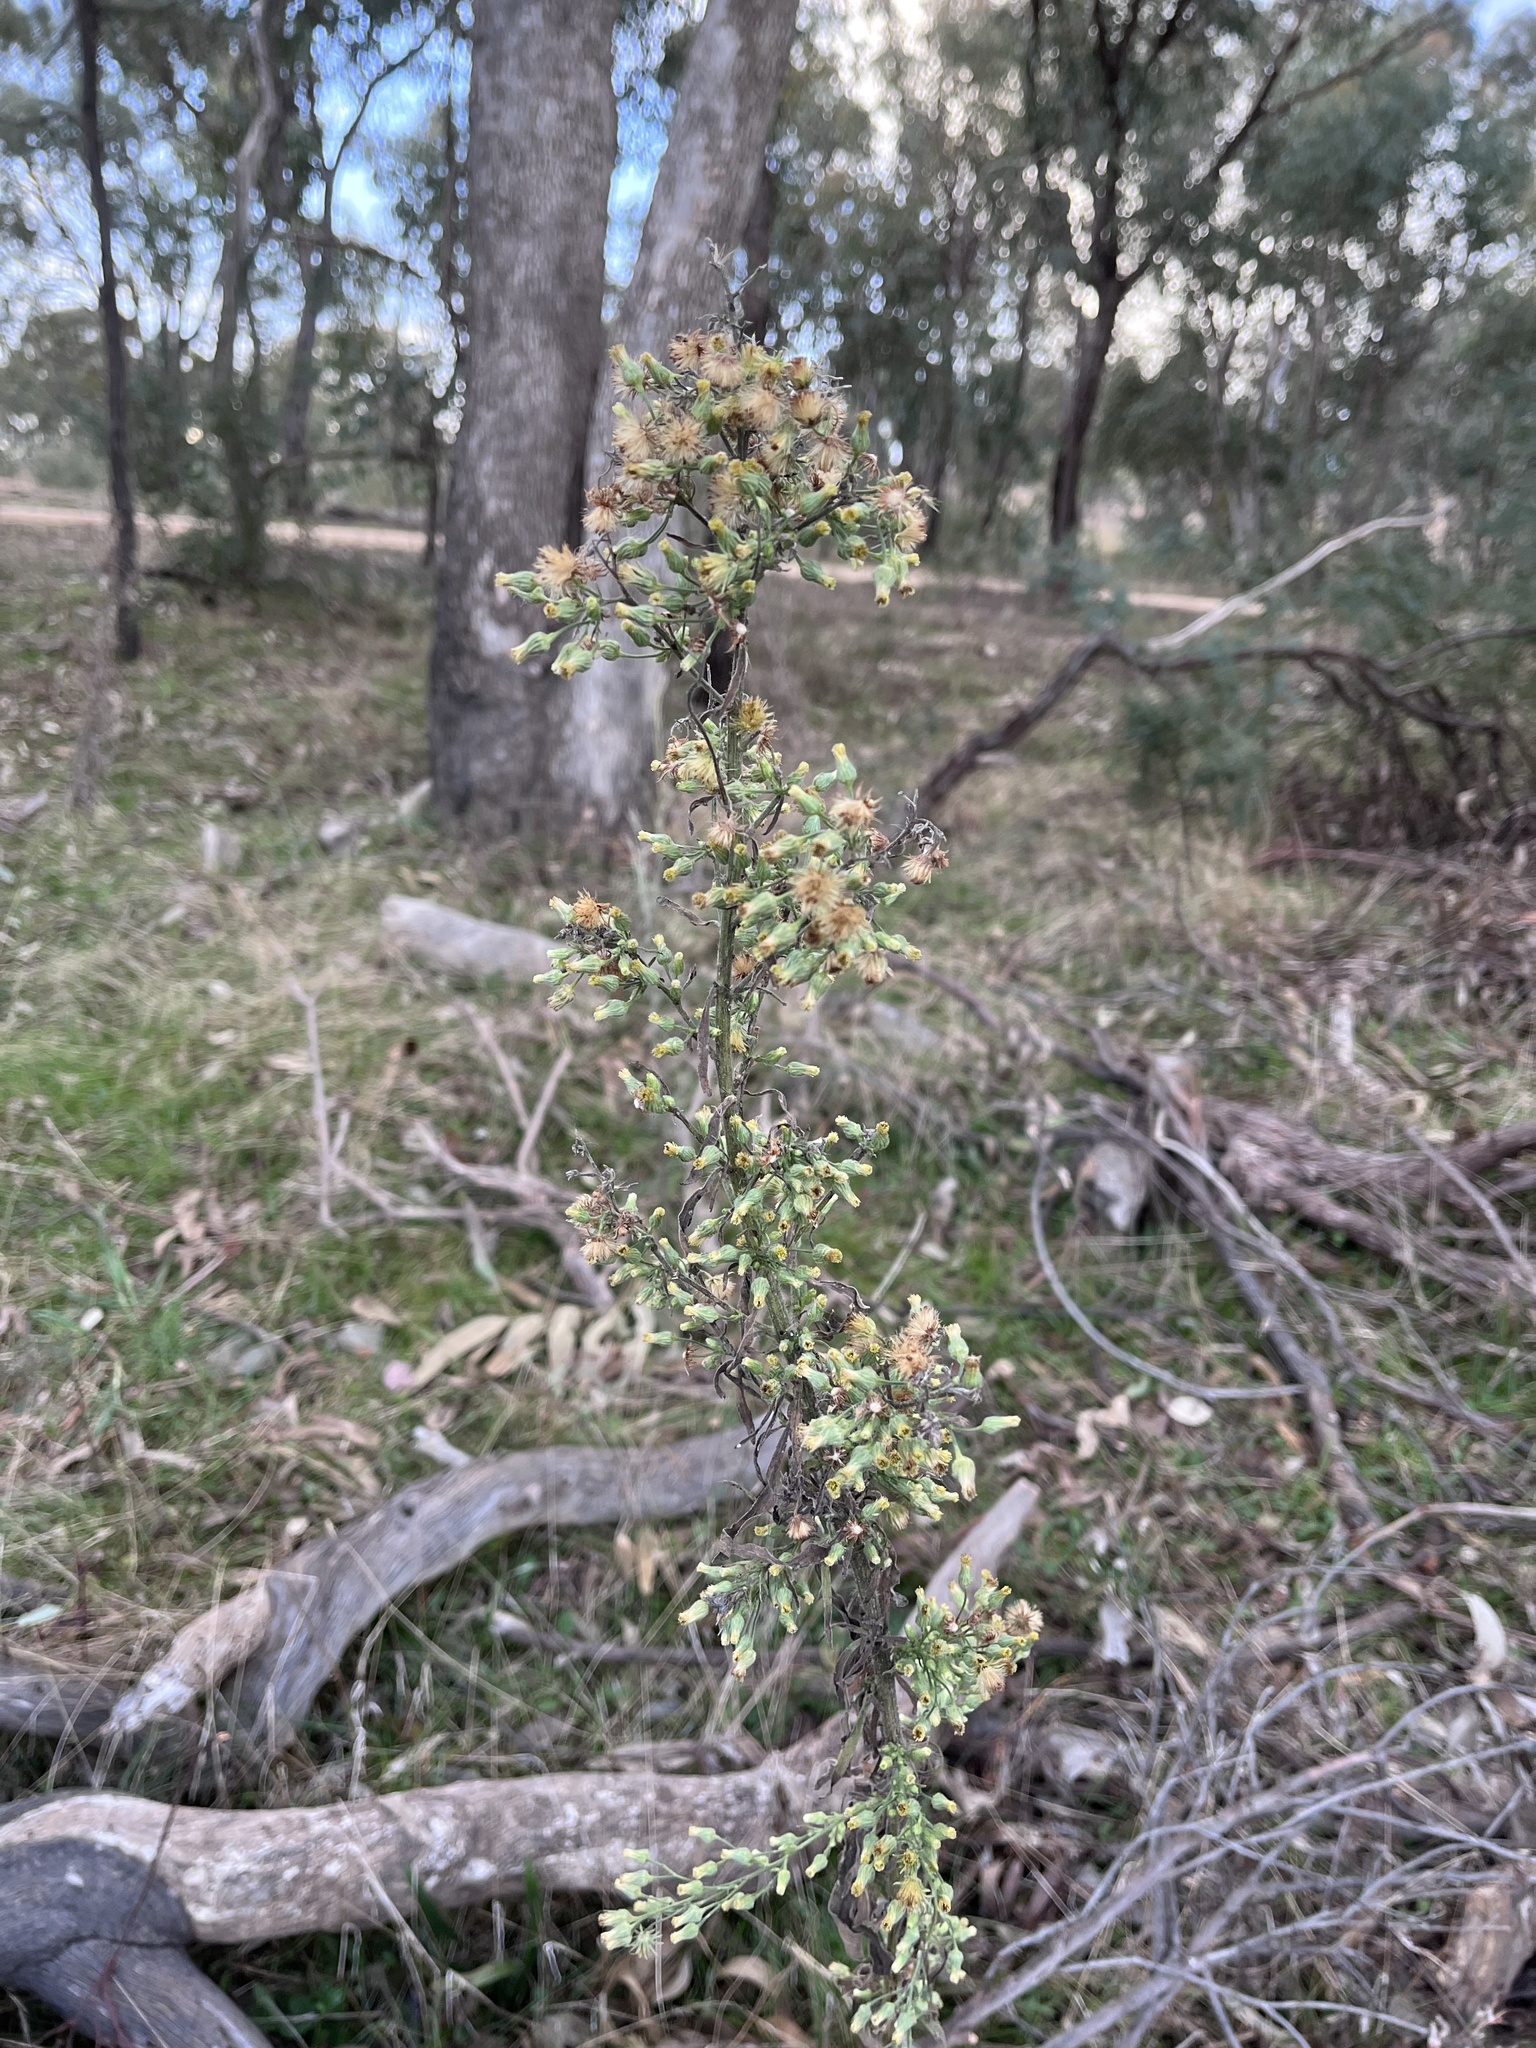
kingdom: Plantae
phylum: Tracheophyta
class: Magnoliopsida
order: Asterales
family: Asteraceae
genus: Erigeron
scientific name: Erigeron
